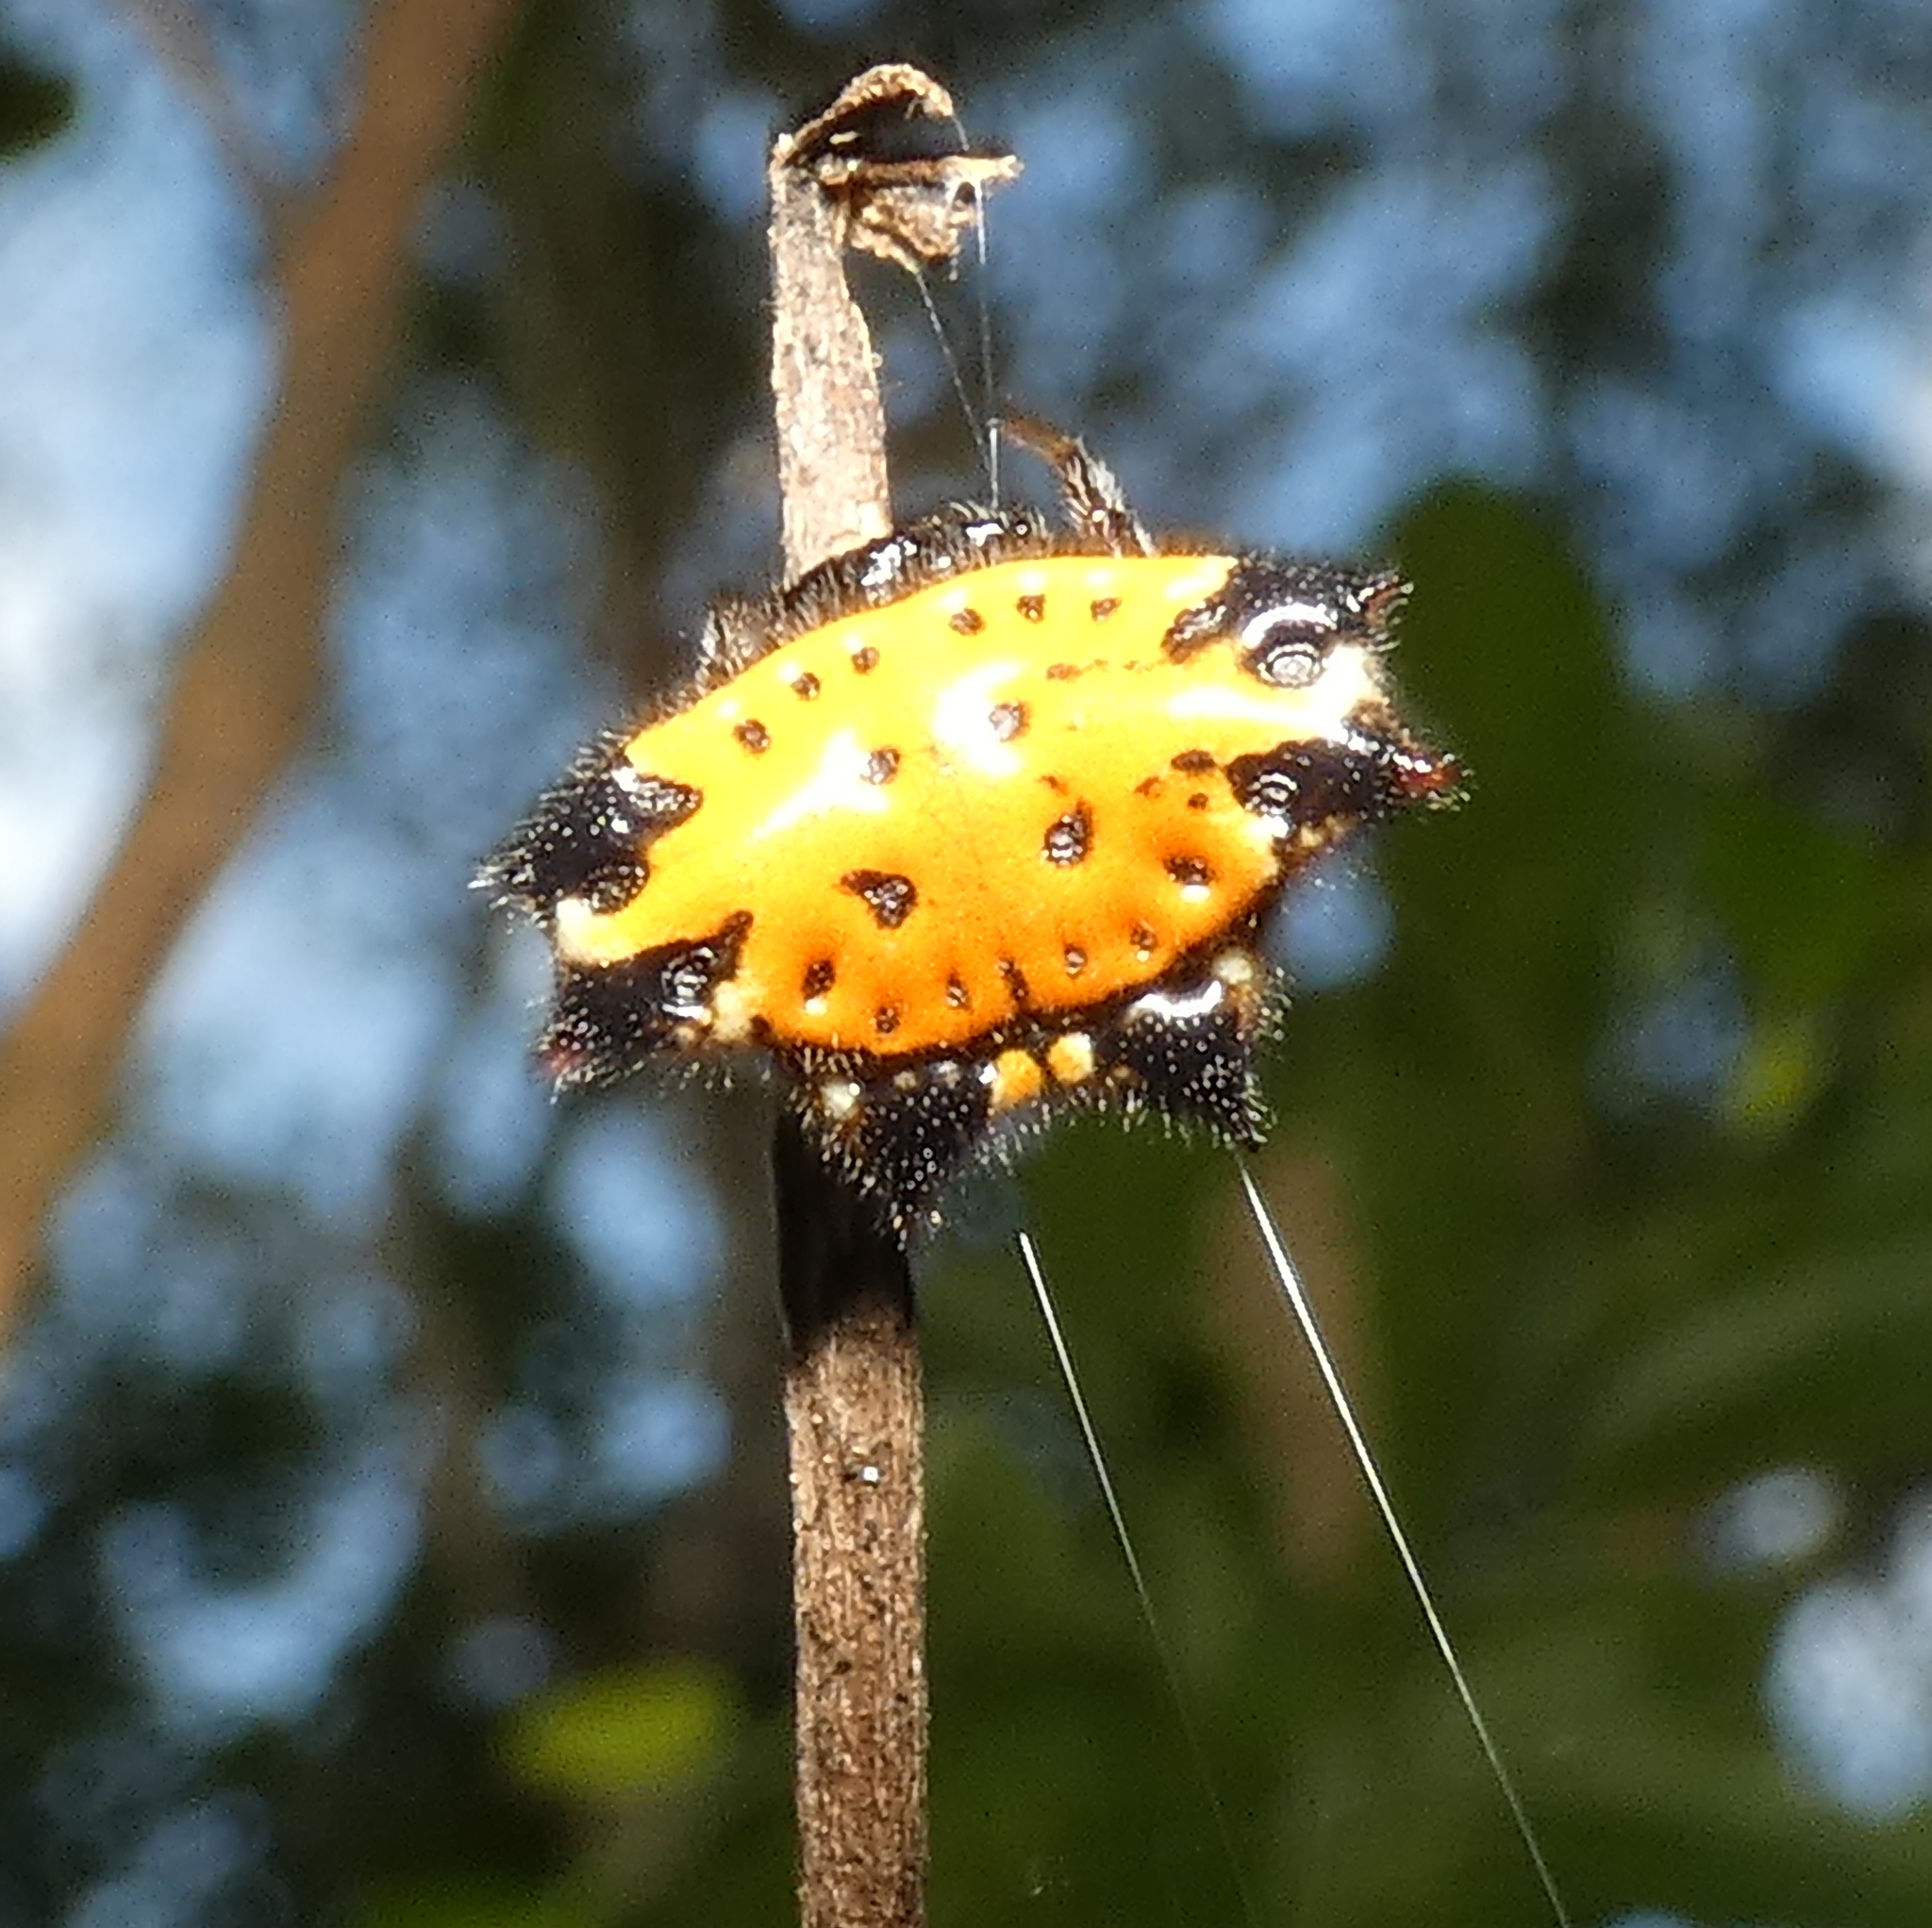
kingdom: Animalia
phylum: Arthropoda
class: Arachnida
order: Araneae
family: Araneidae
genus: Gasteracantha
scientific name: Gasteracantha cancriformis
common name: Orb weavers
